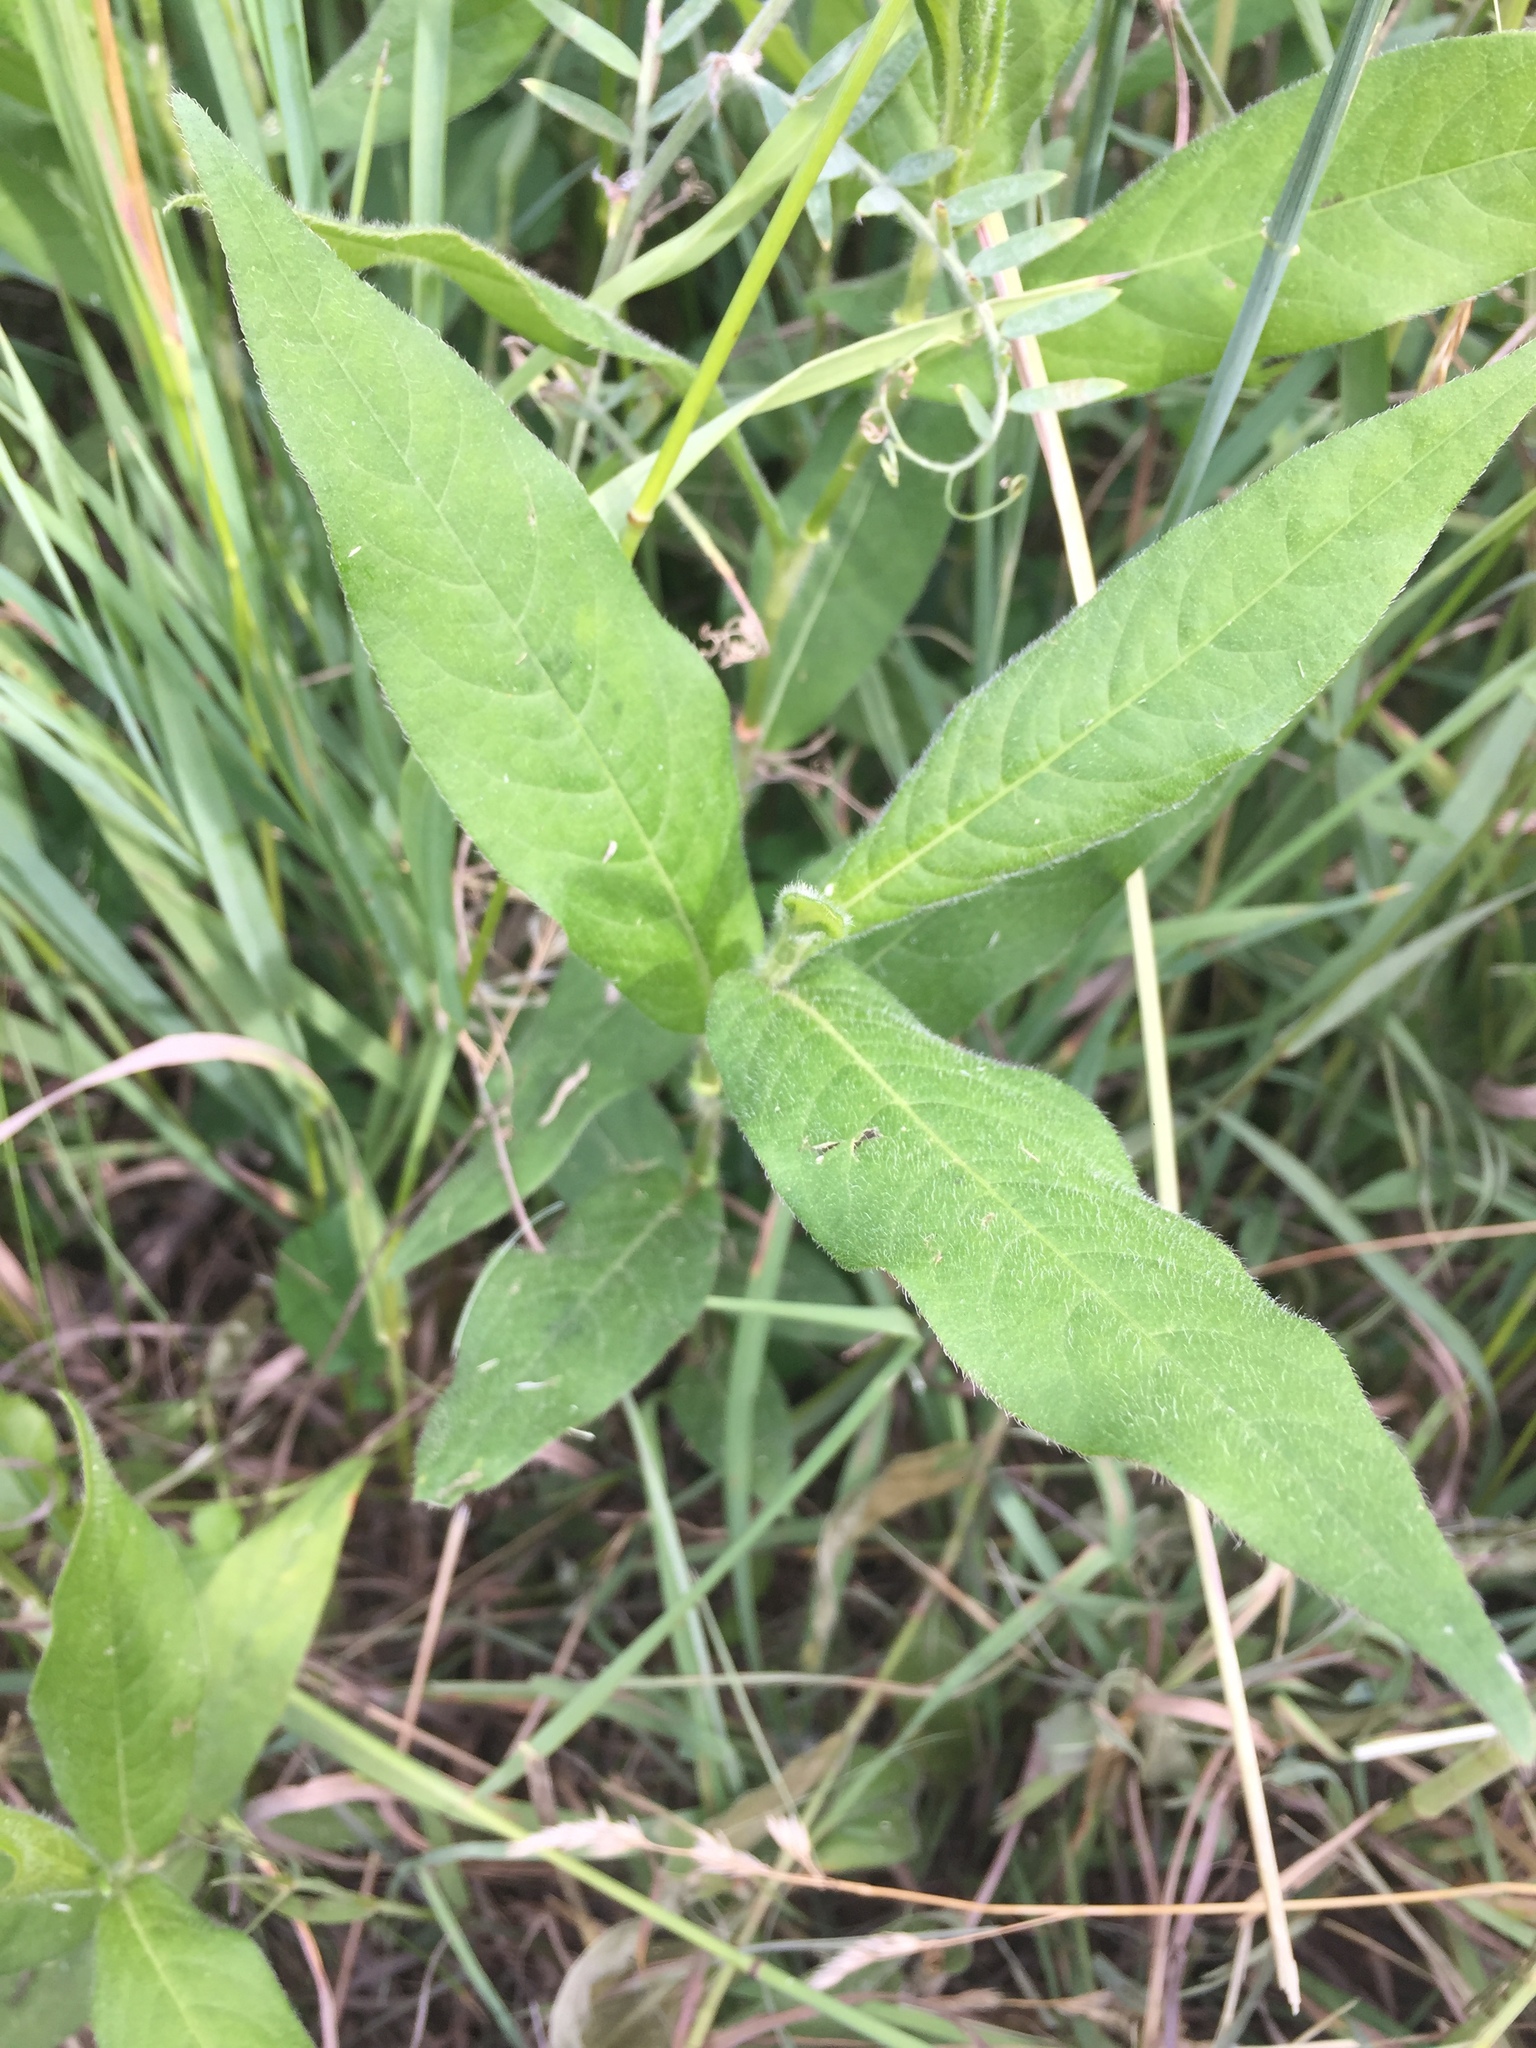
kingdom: Plantae
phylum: Tracheophyta
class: Magnoliopsida
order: Caryophyllales
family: Polygonaceae
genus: Persicaria
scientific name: Persicaria amphibia
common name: Amphibious bistort
